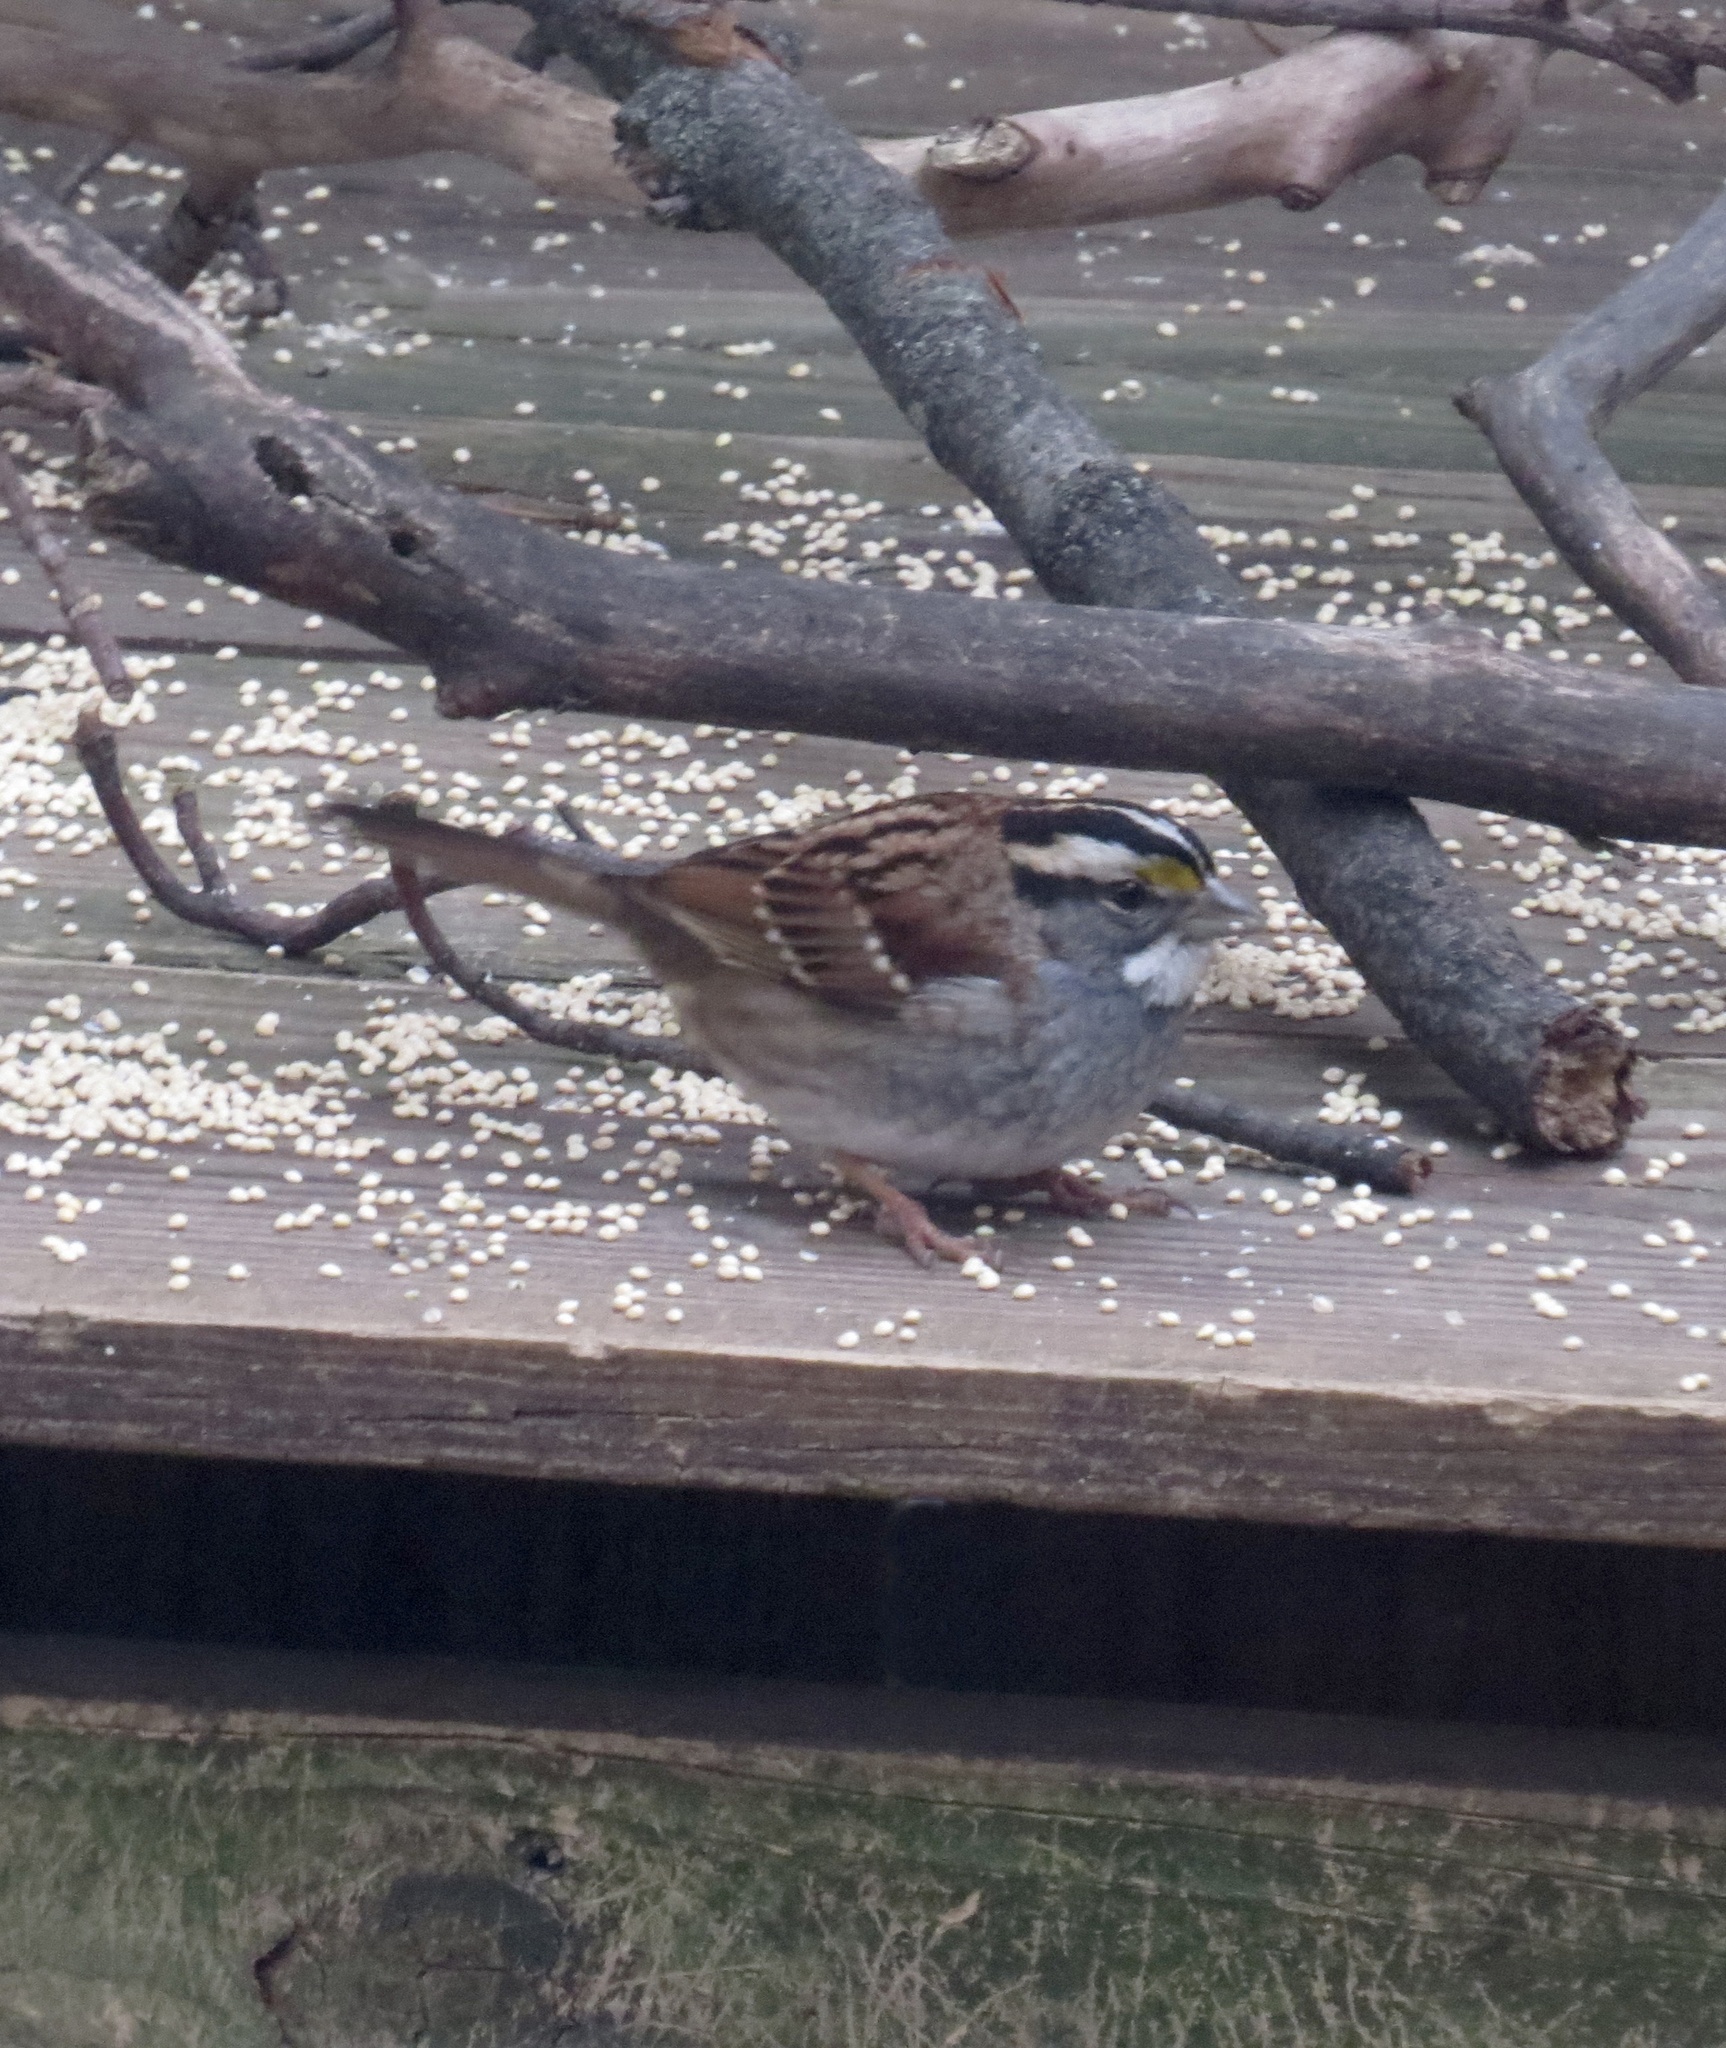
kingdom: Animalia
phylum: Chordata
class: Aves
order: Passeriformes
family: Passerellidae
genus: Zonotrichia
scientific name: Zonotrichia albicollis
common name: White-throated sparrow
